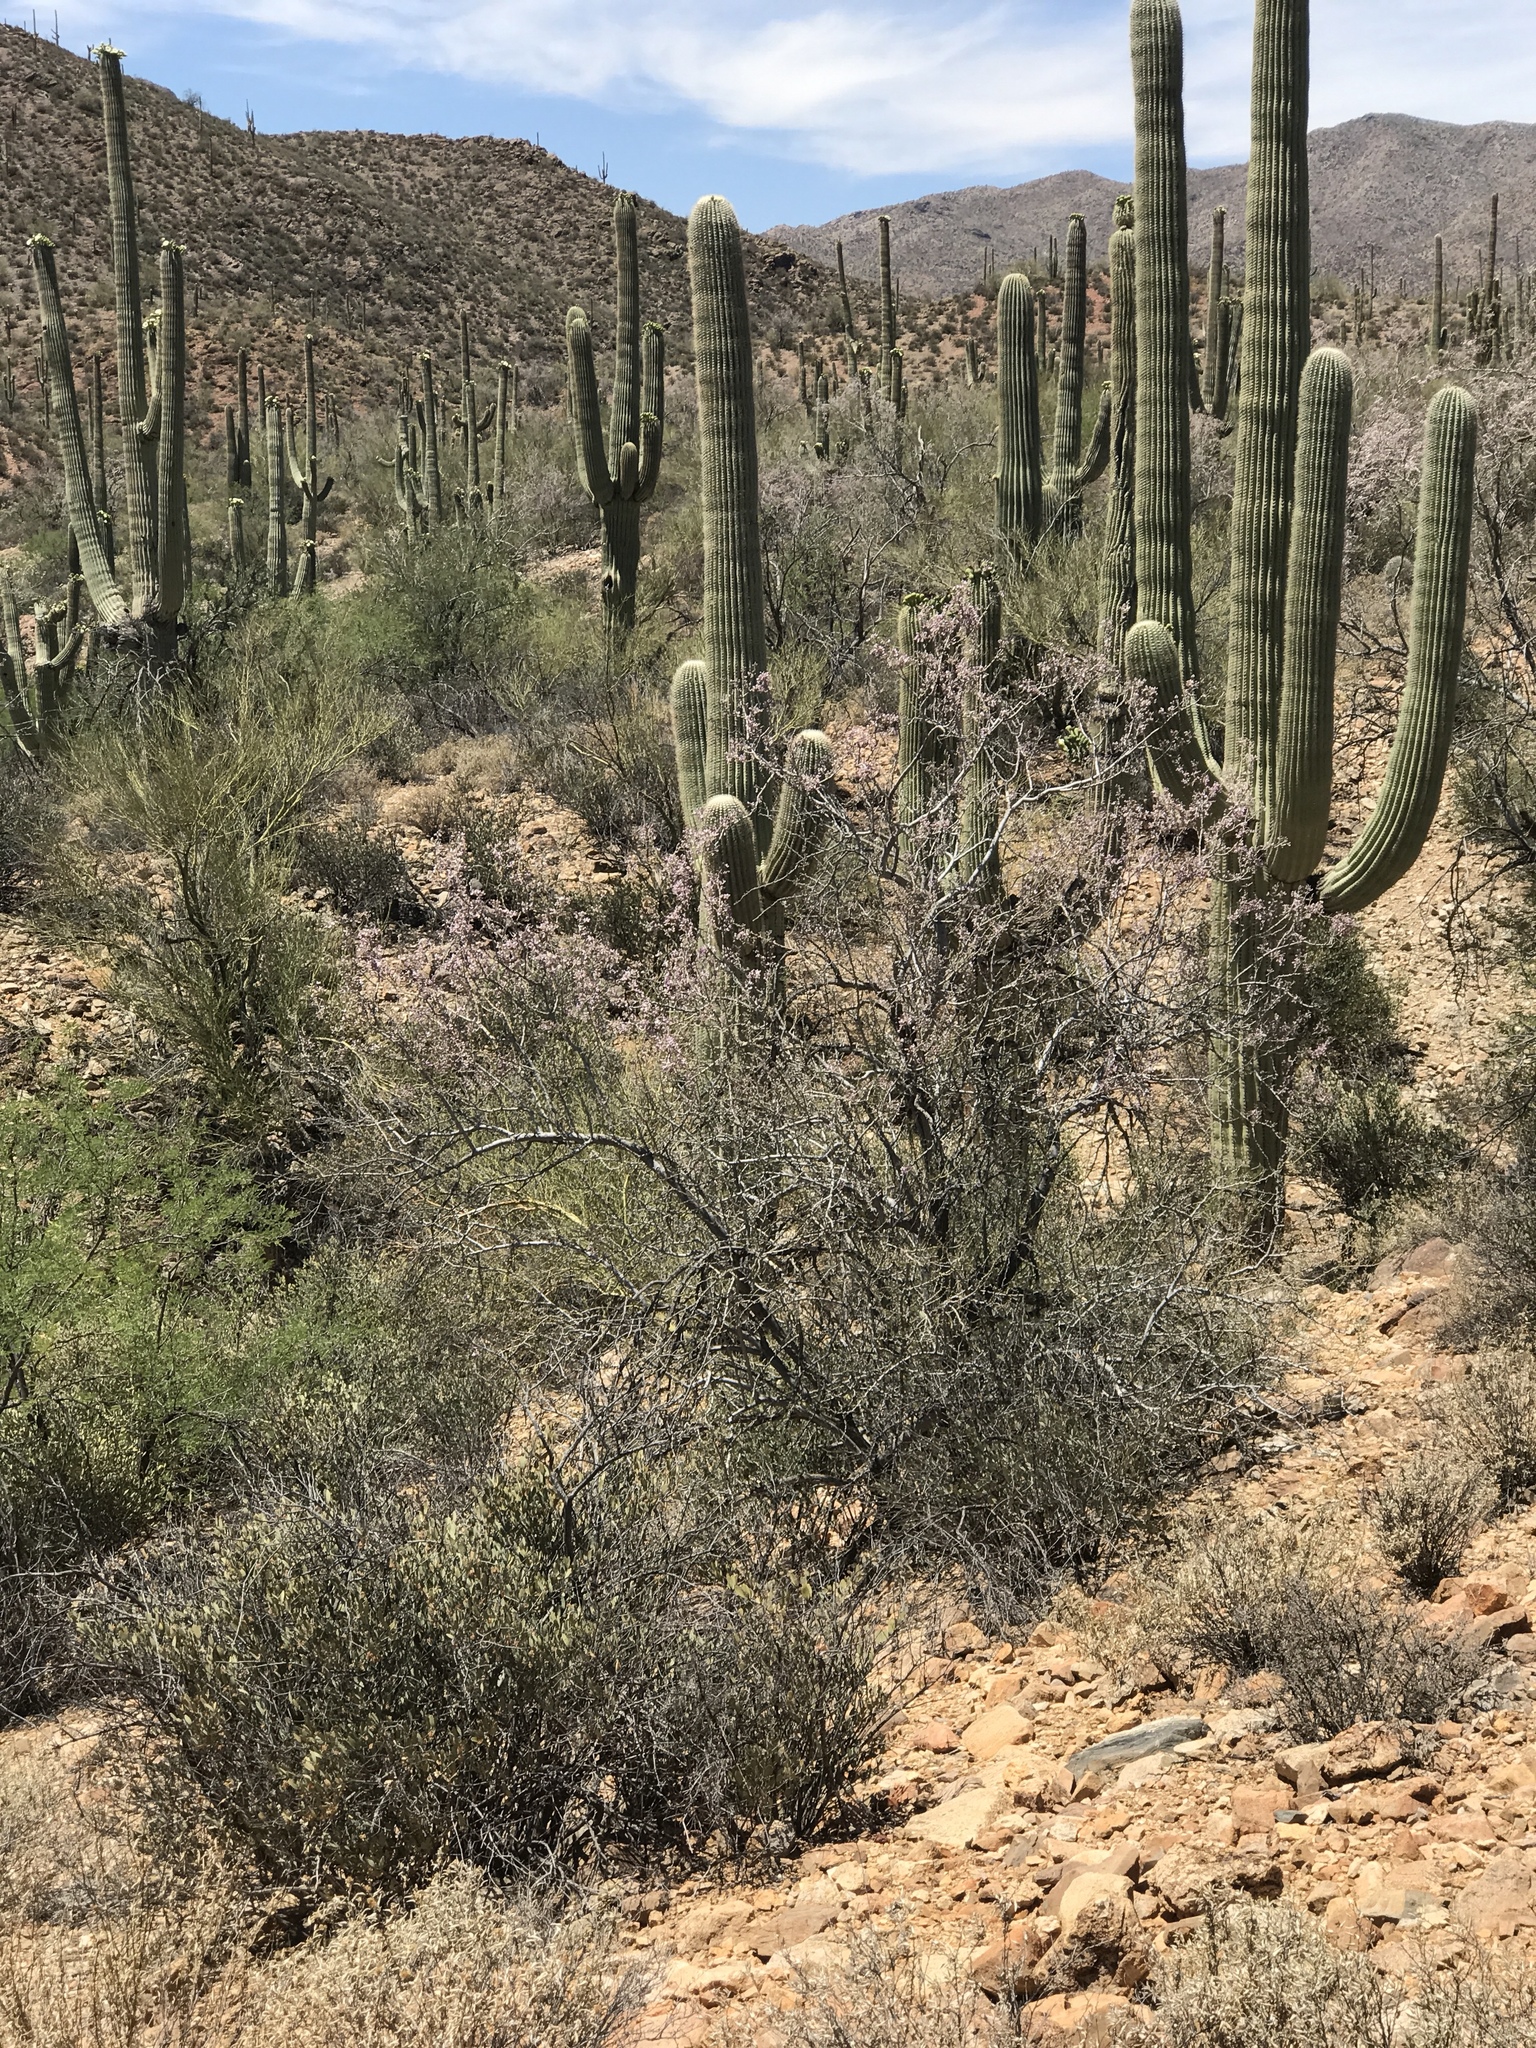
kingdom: Plantae
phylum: Tracheophyta
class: Magnoliopsida
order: Fabales
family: Fabaceae
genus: Olneya
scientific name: Olneya tesota
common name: Desert ironwood
